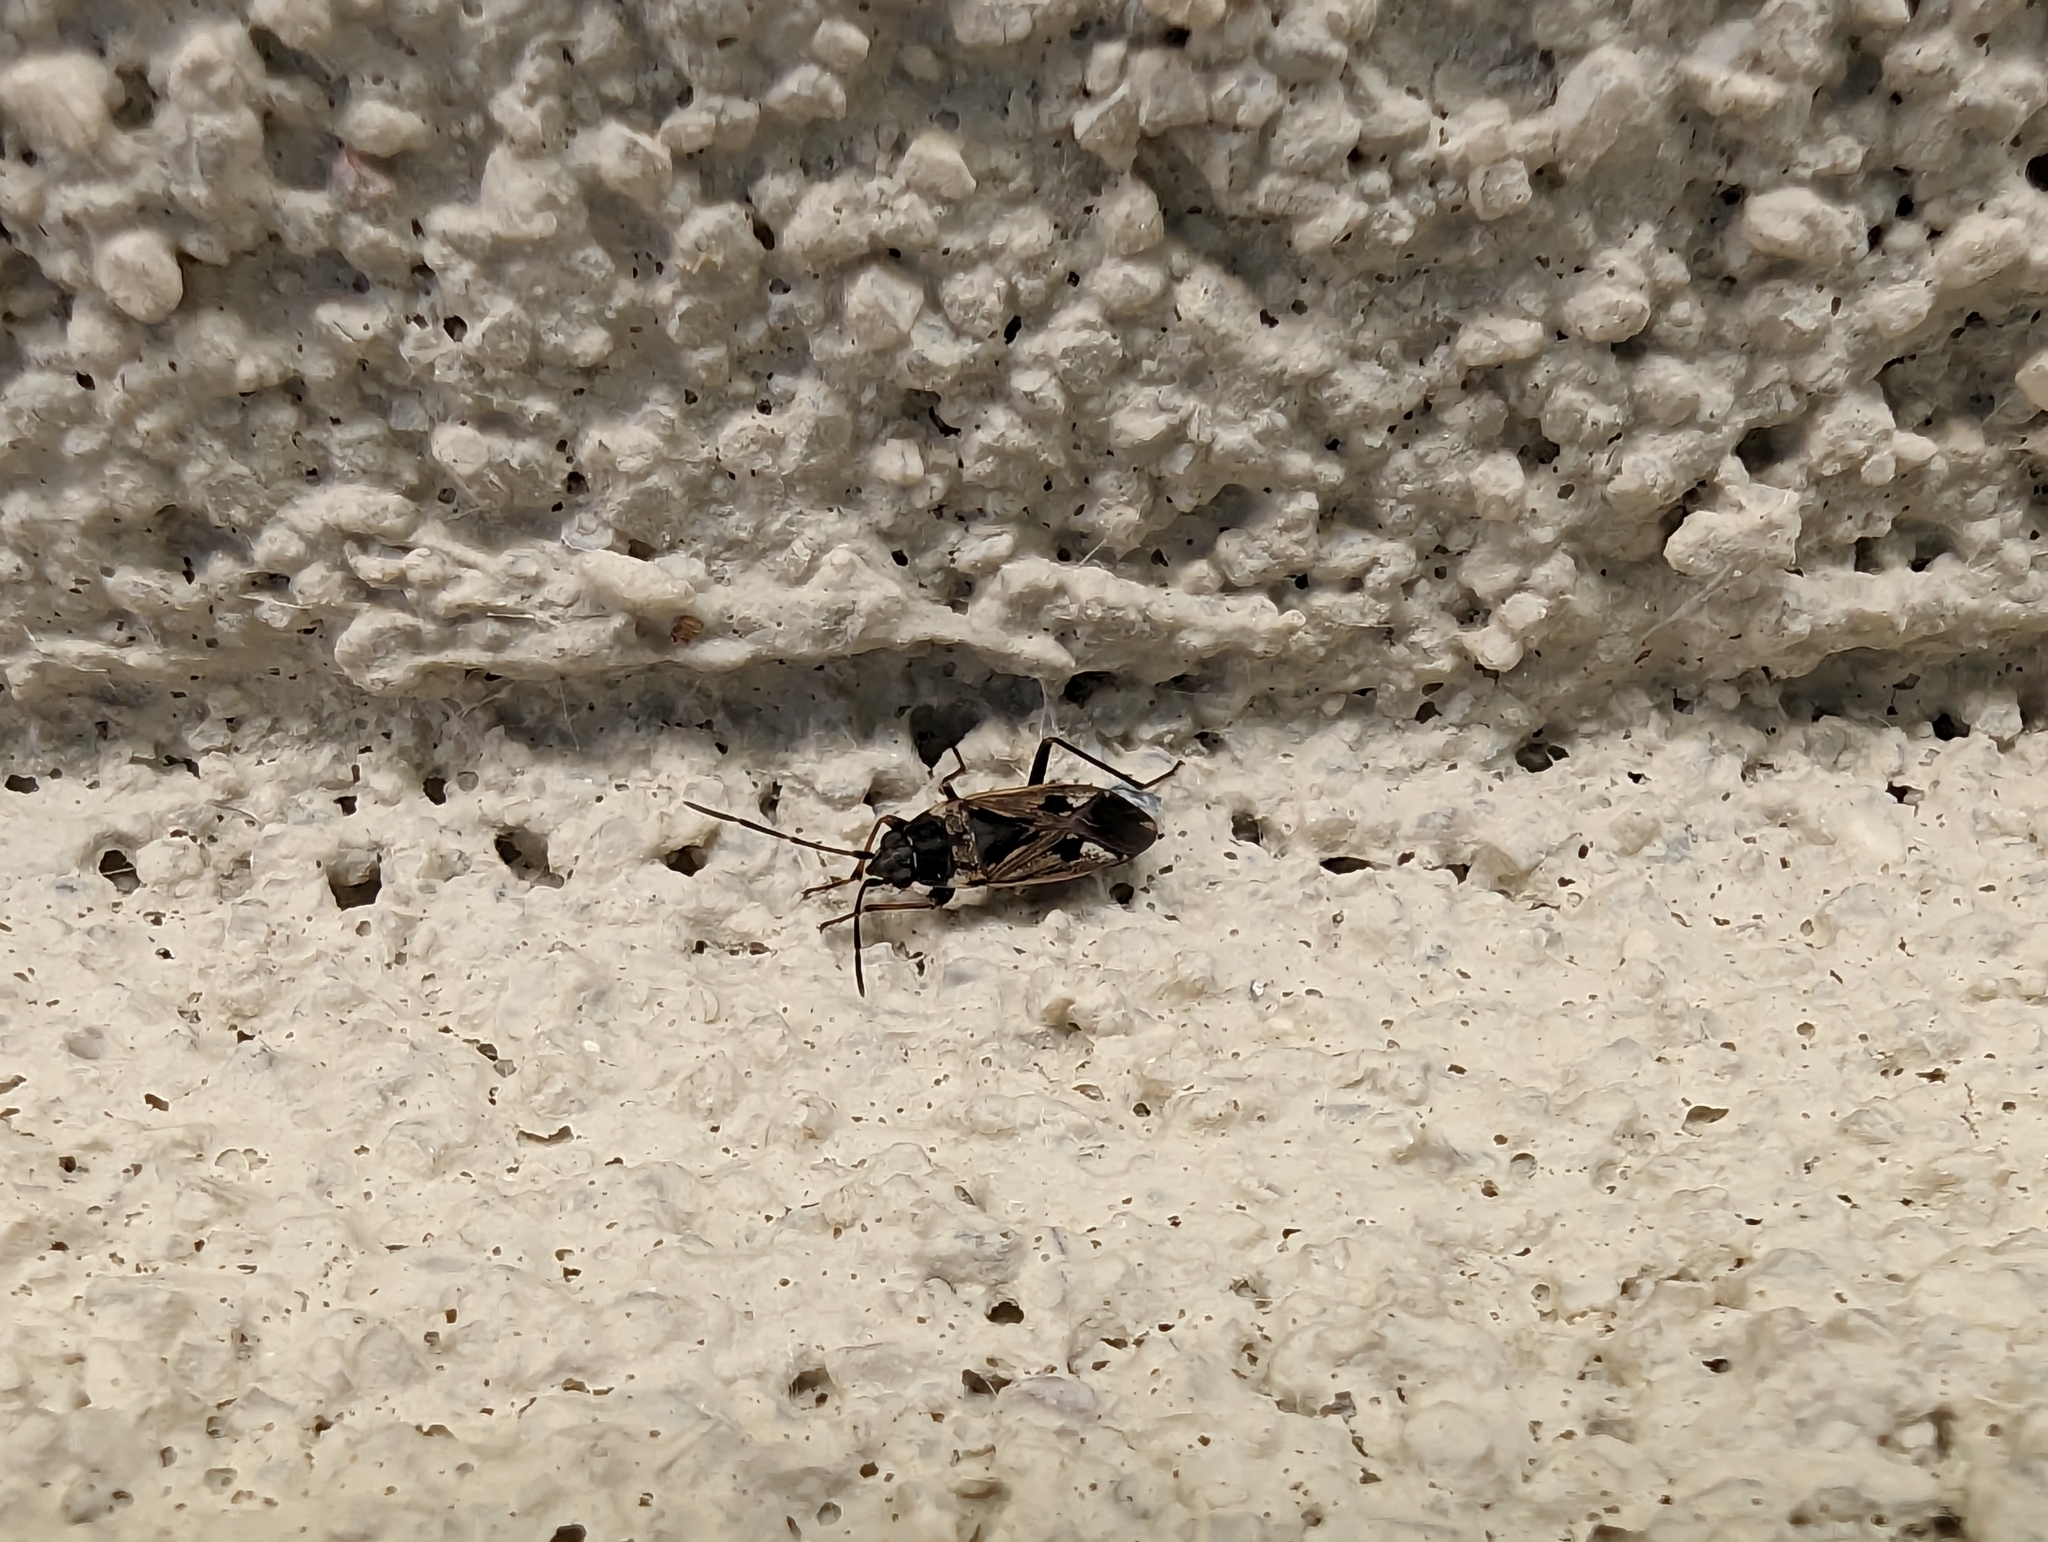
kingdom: Animalia
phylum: Arthropoda
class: Insecta
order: Hemiptera
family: Rhyparochromidae
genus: Rhyparochromus
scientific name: Rhyparochromus vulgaris
